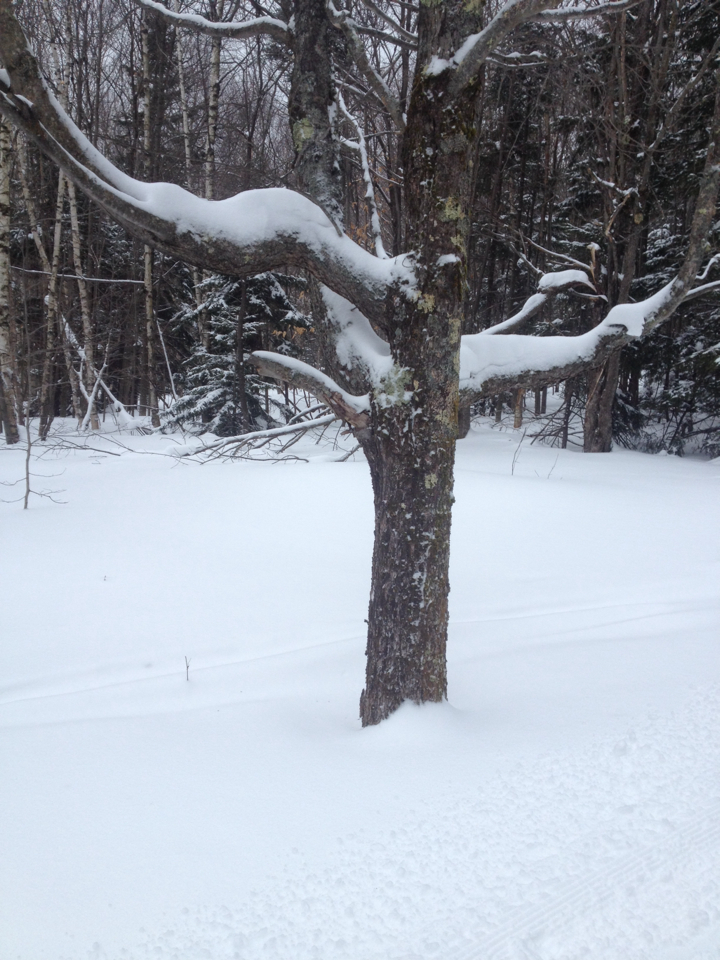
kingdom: Plantae
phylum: Tracheophyta
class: Magnoliopsida
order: Sapindales
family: Sapindaceae
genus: Acer
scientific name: Acer saccharum
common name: Sugar maple
